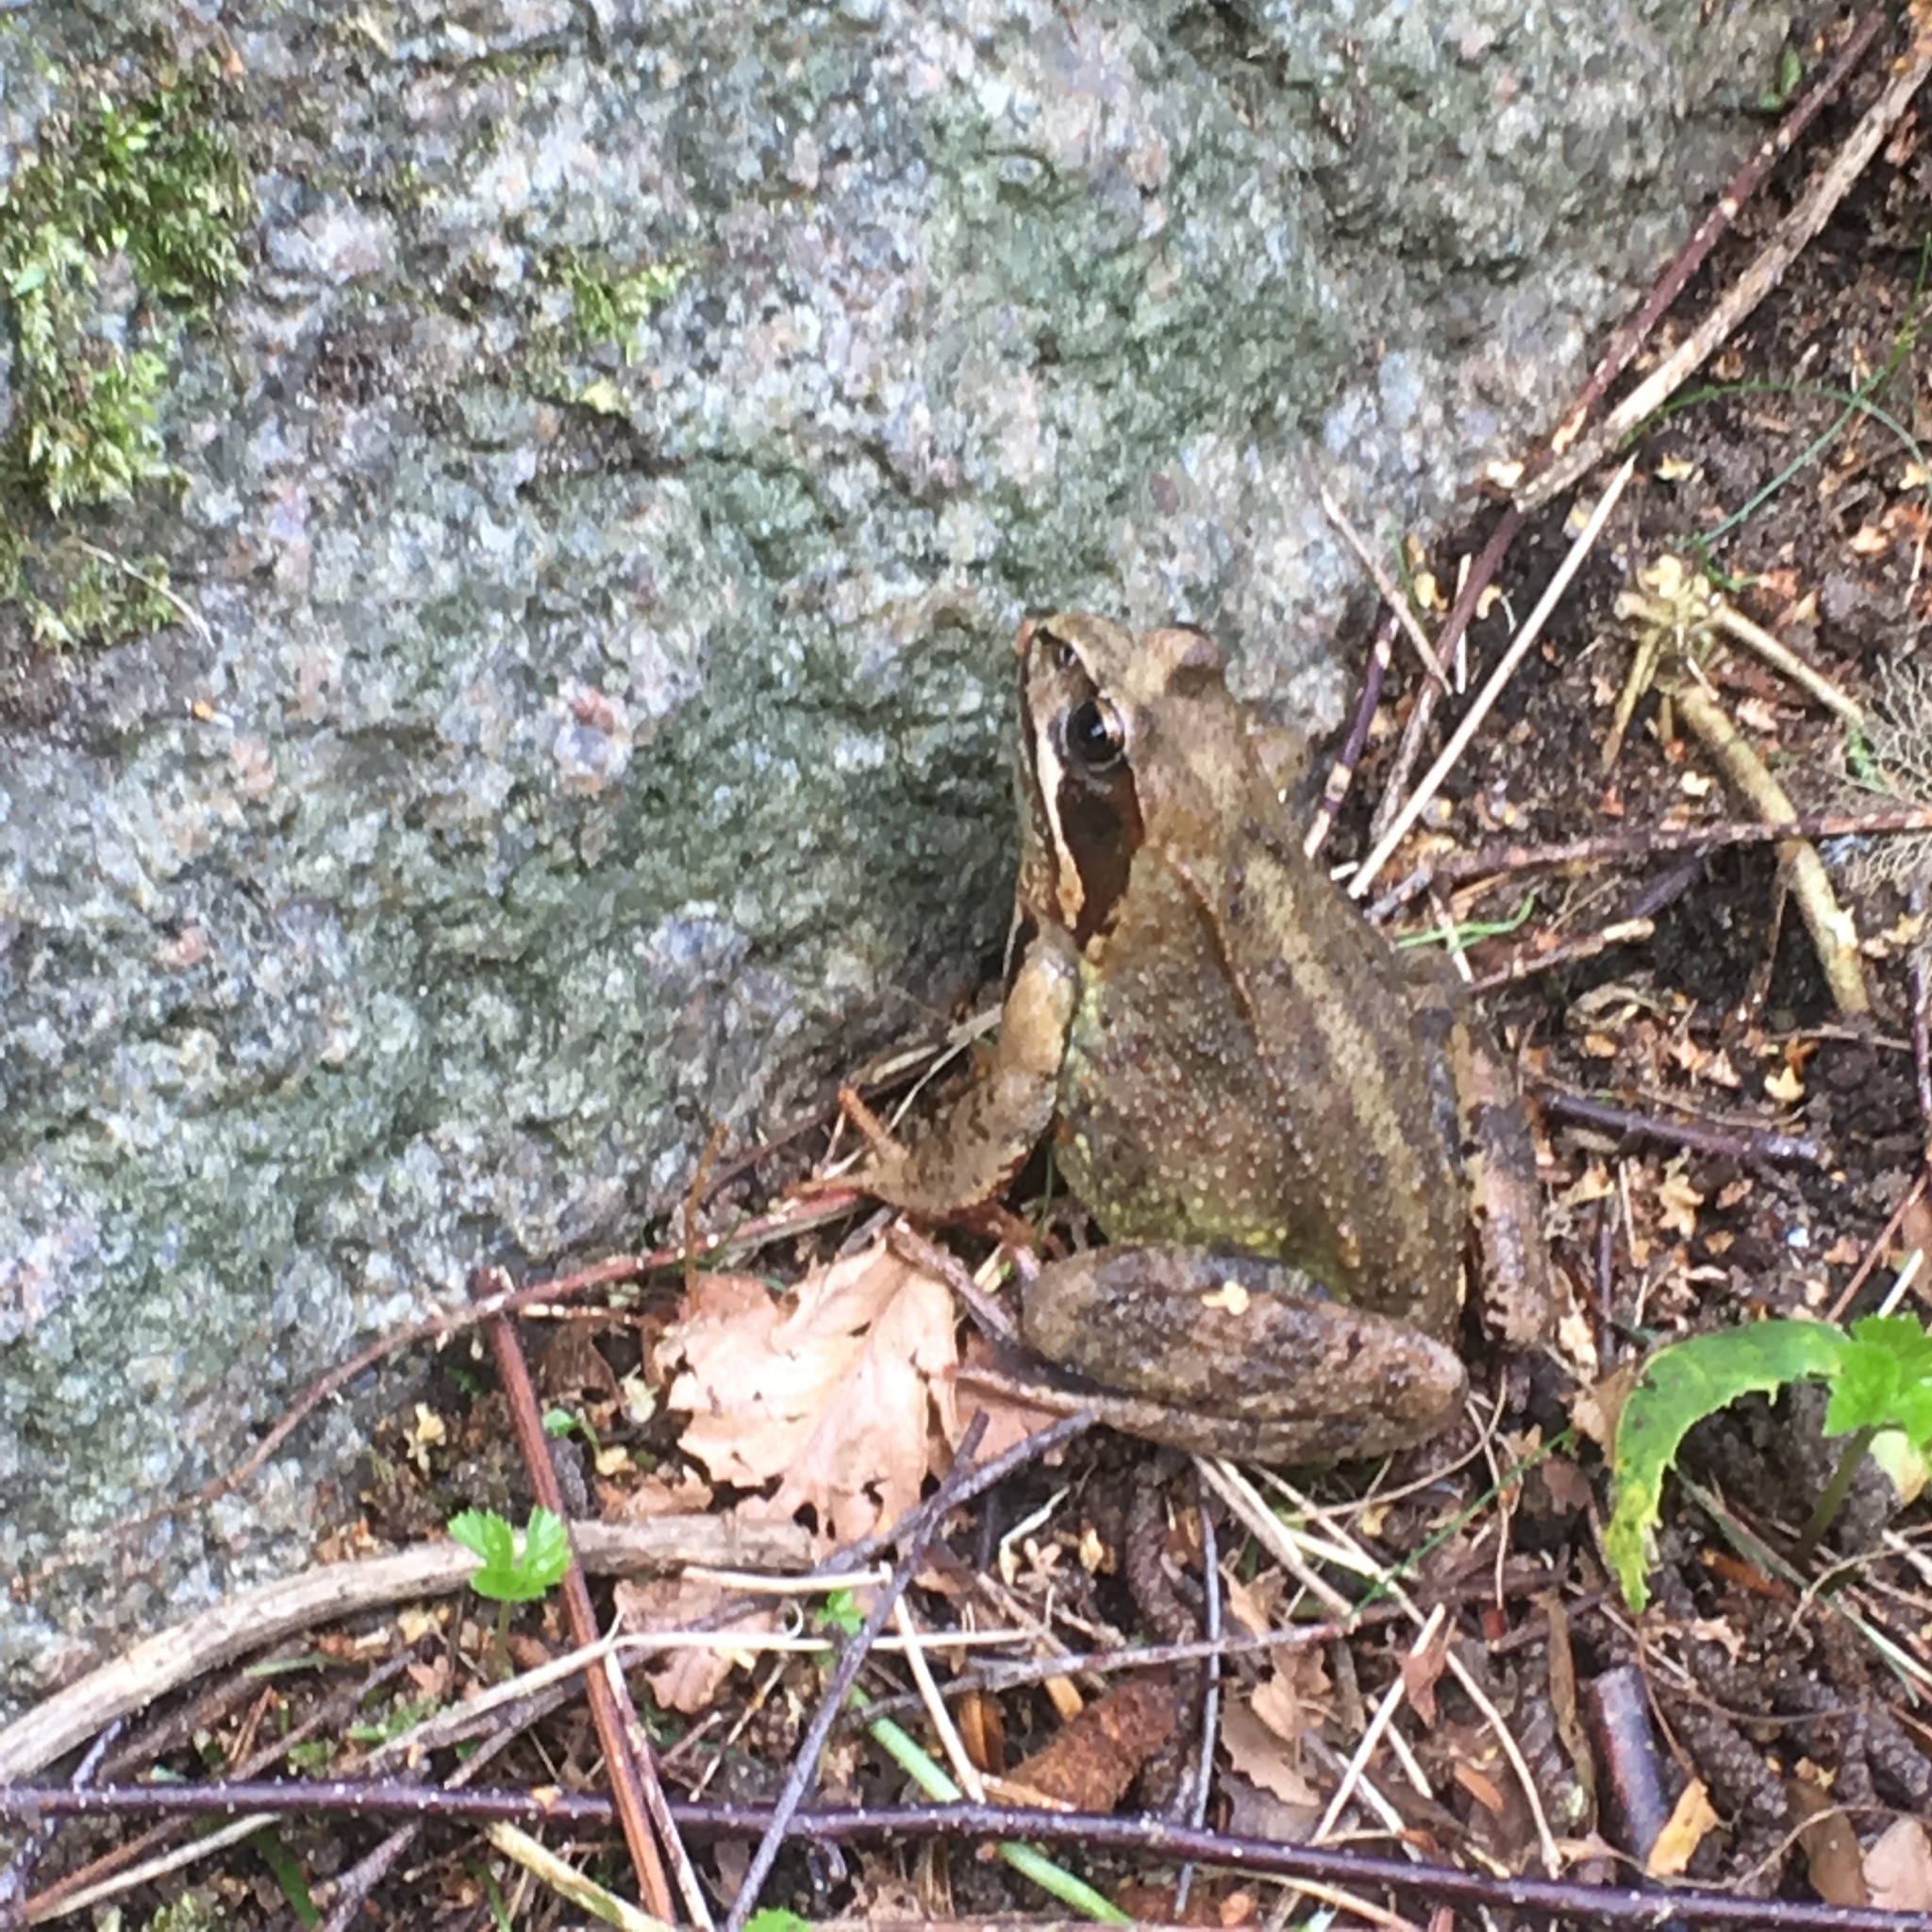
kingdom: Animalia
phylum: Chordata
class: Amphibia
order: Anura
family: Ranidae
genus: Rana
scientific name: Rana temporaria
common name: Common frog
